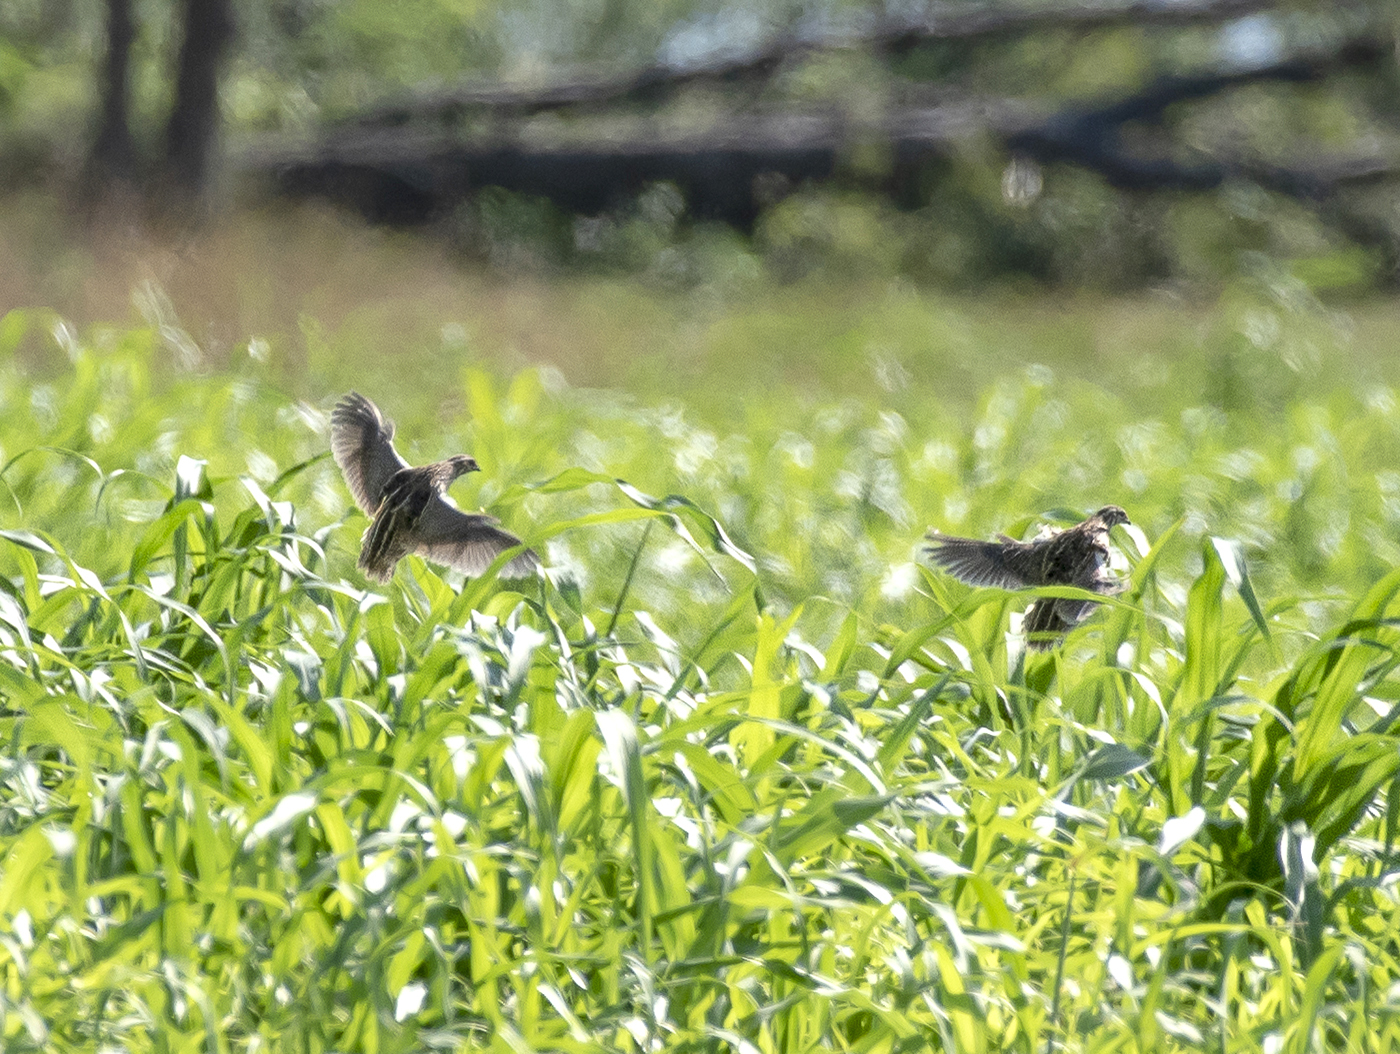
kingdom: Animalia
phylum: Chordata
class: Aves
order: Galliformes
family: Phasianidae
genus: Coturnix
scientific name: Coturnix coturnix
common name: Common quail
